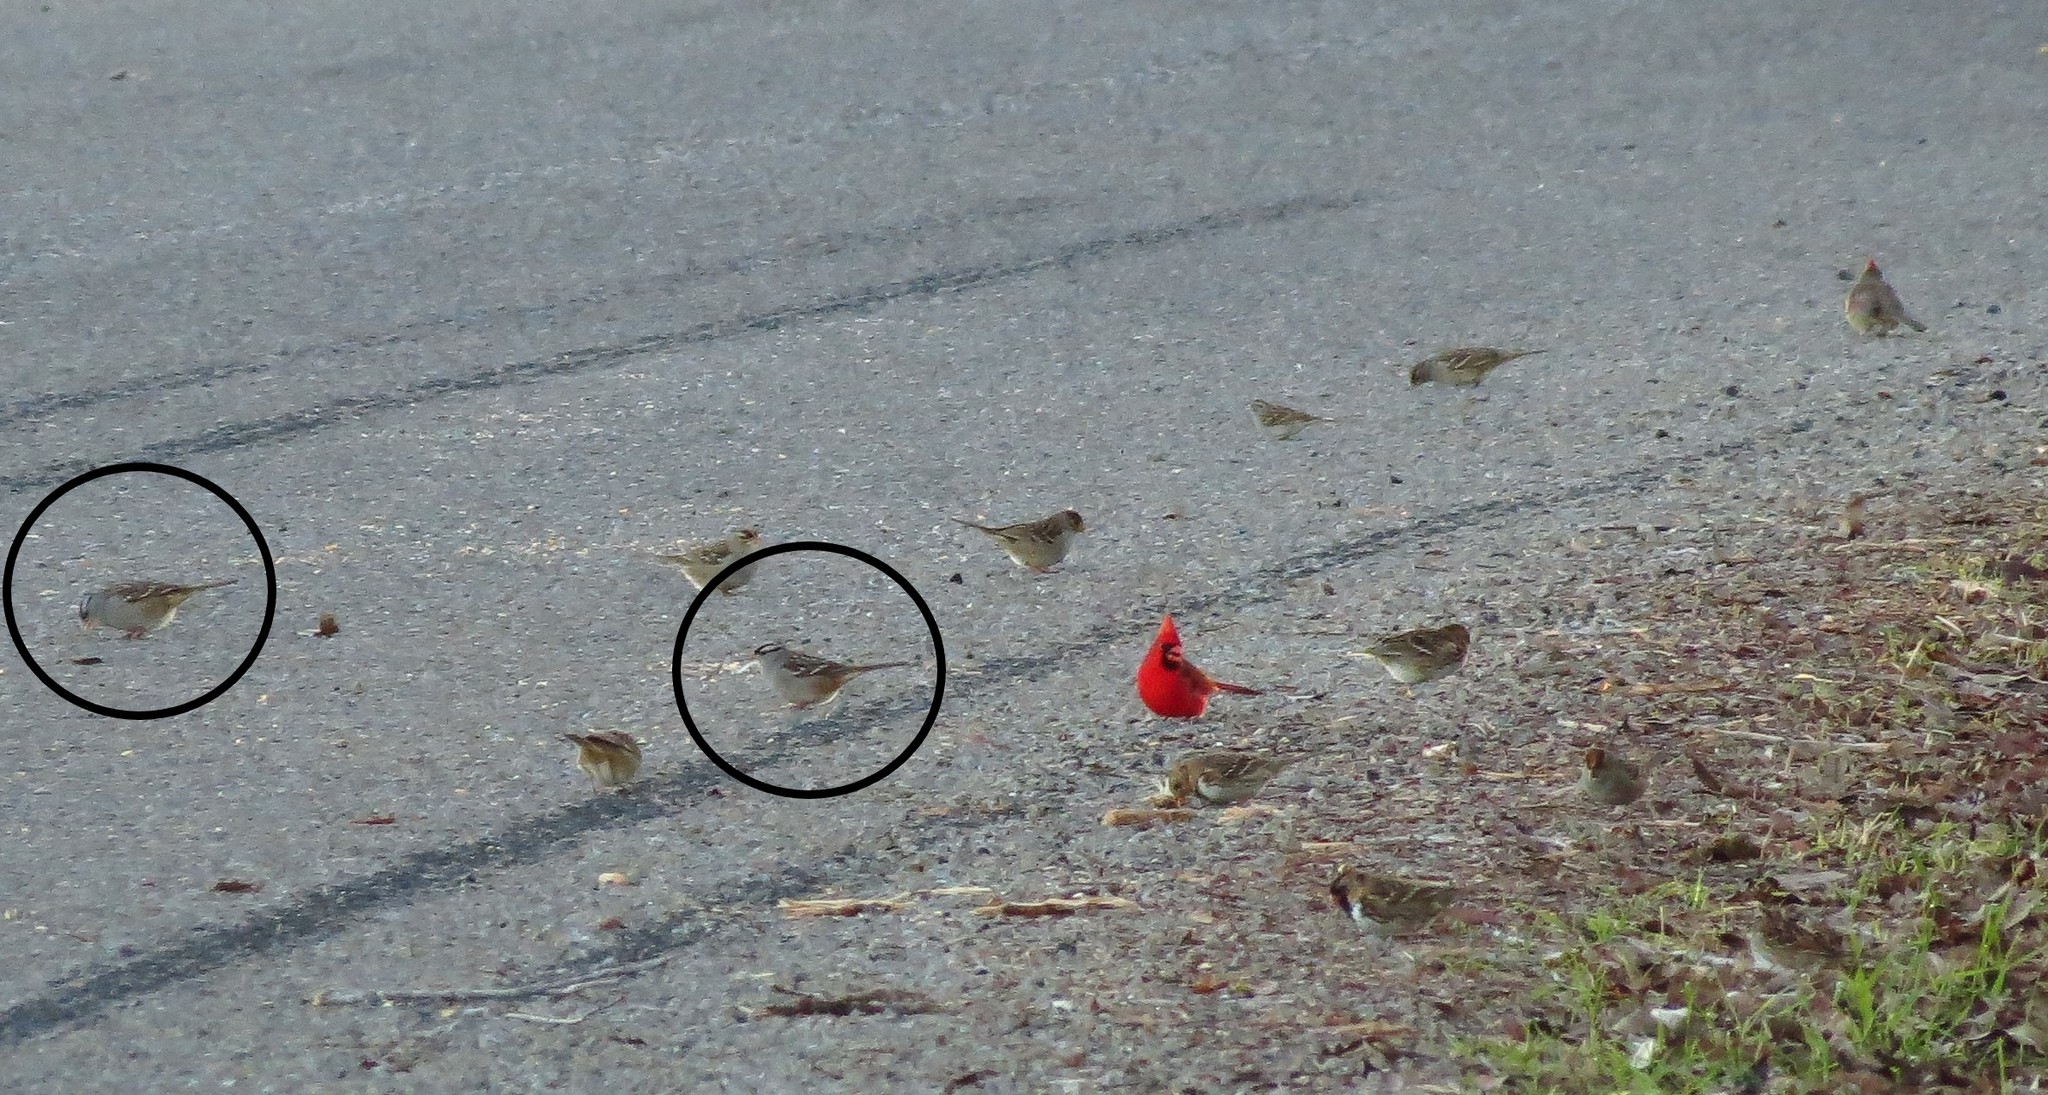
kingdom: Animalia
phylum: Chordata
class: Aves
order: Passeriformes
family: Passerellidae
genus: Zonotrichia
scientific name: Zonotrichia leucophrys
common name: White-crowned sparrow
